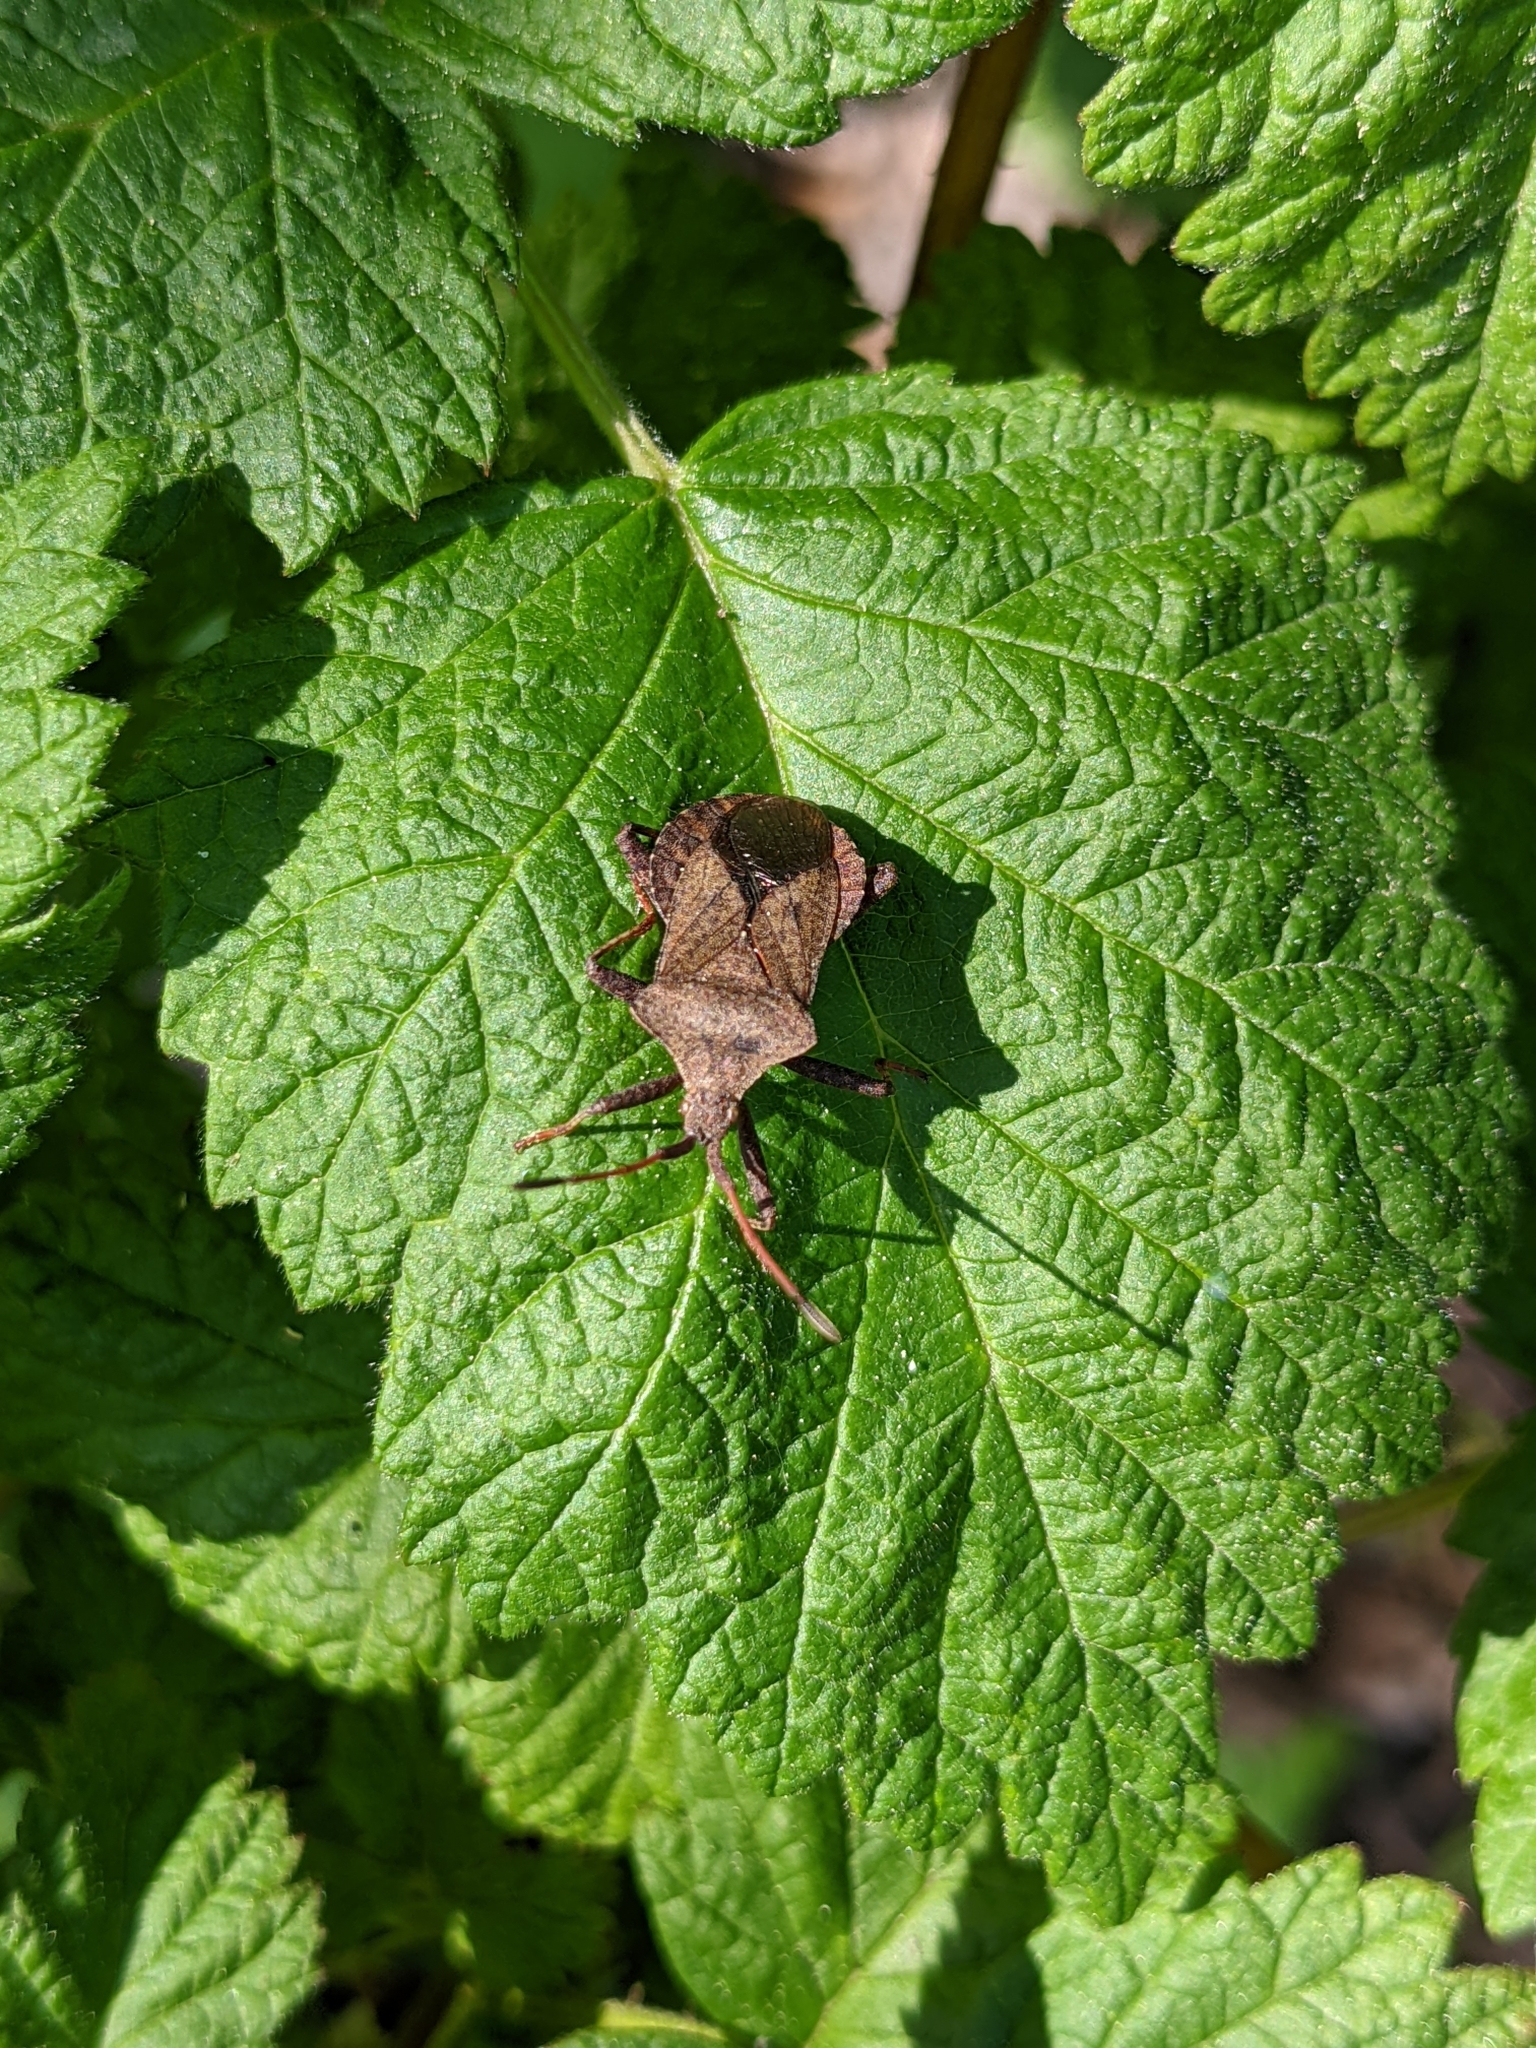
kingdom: Animalia
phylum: Arthropoda
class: Insecta
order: Hemiptera
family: Coreidae
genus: Coreus
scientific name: Coreus marginatus
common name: Dock bug
